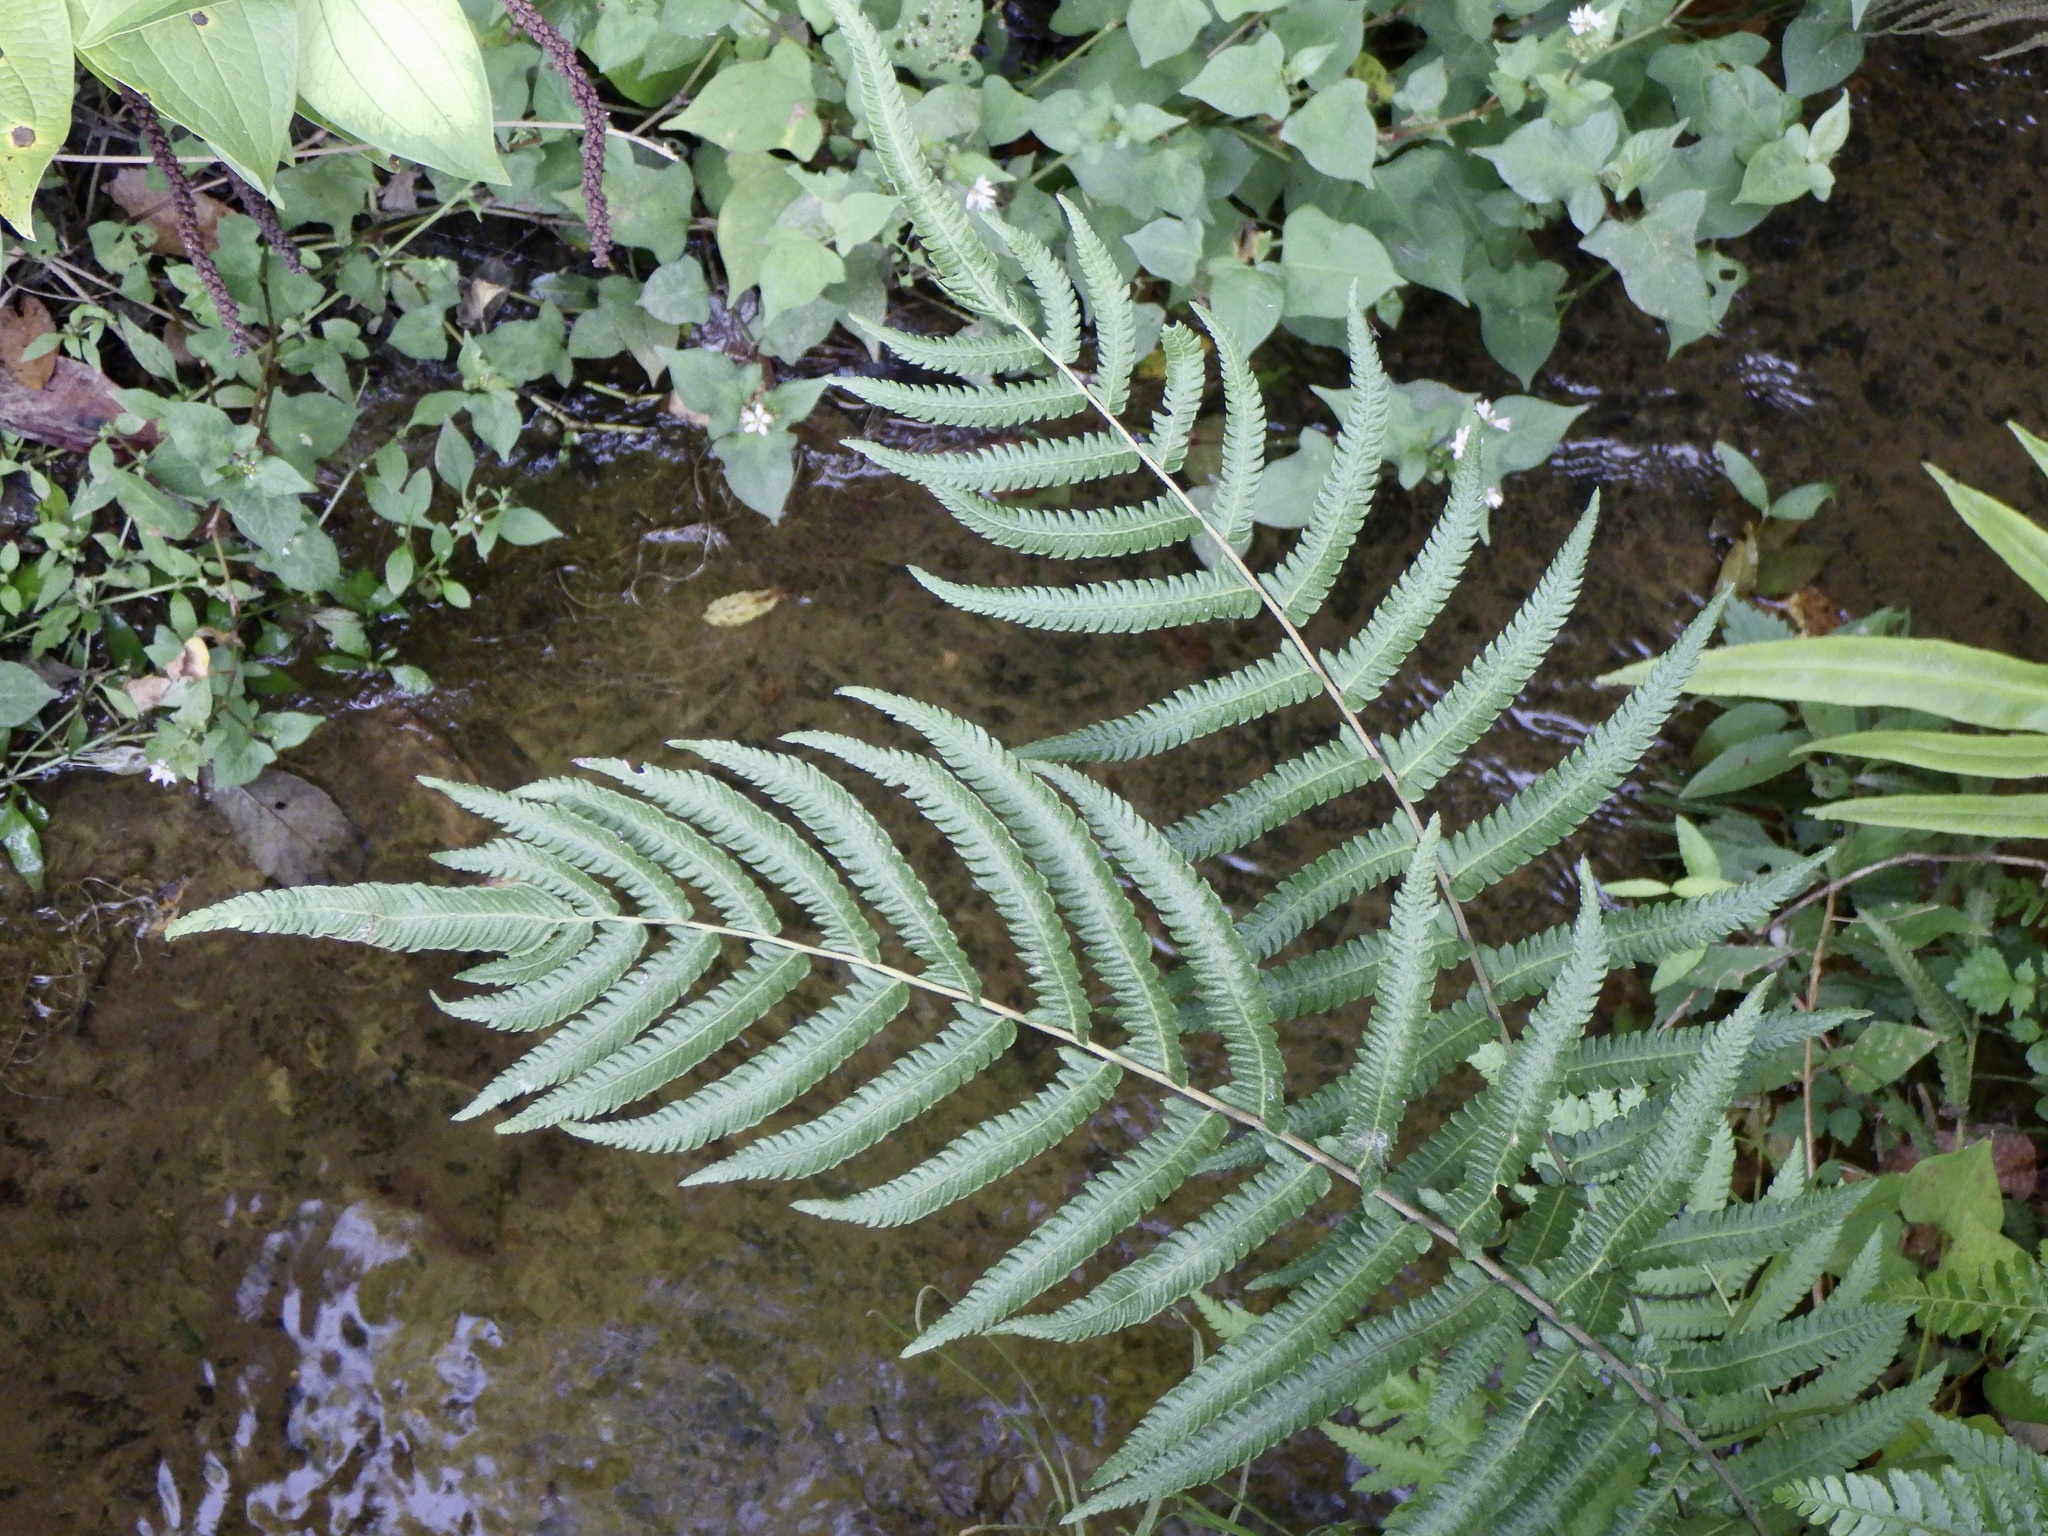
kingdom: Plantae
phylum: Tracheophyta
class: Polypodiopsida
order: Polypodiales
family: Thelypteridaceae
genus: Christella
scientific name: Christella acuminata
